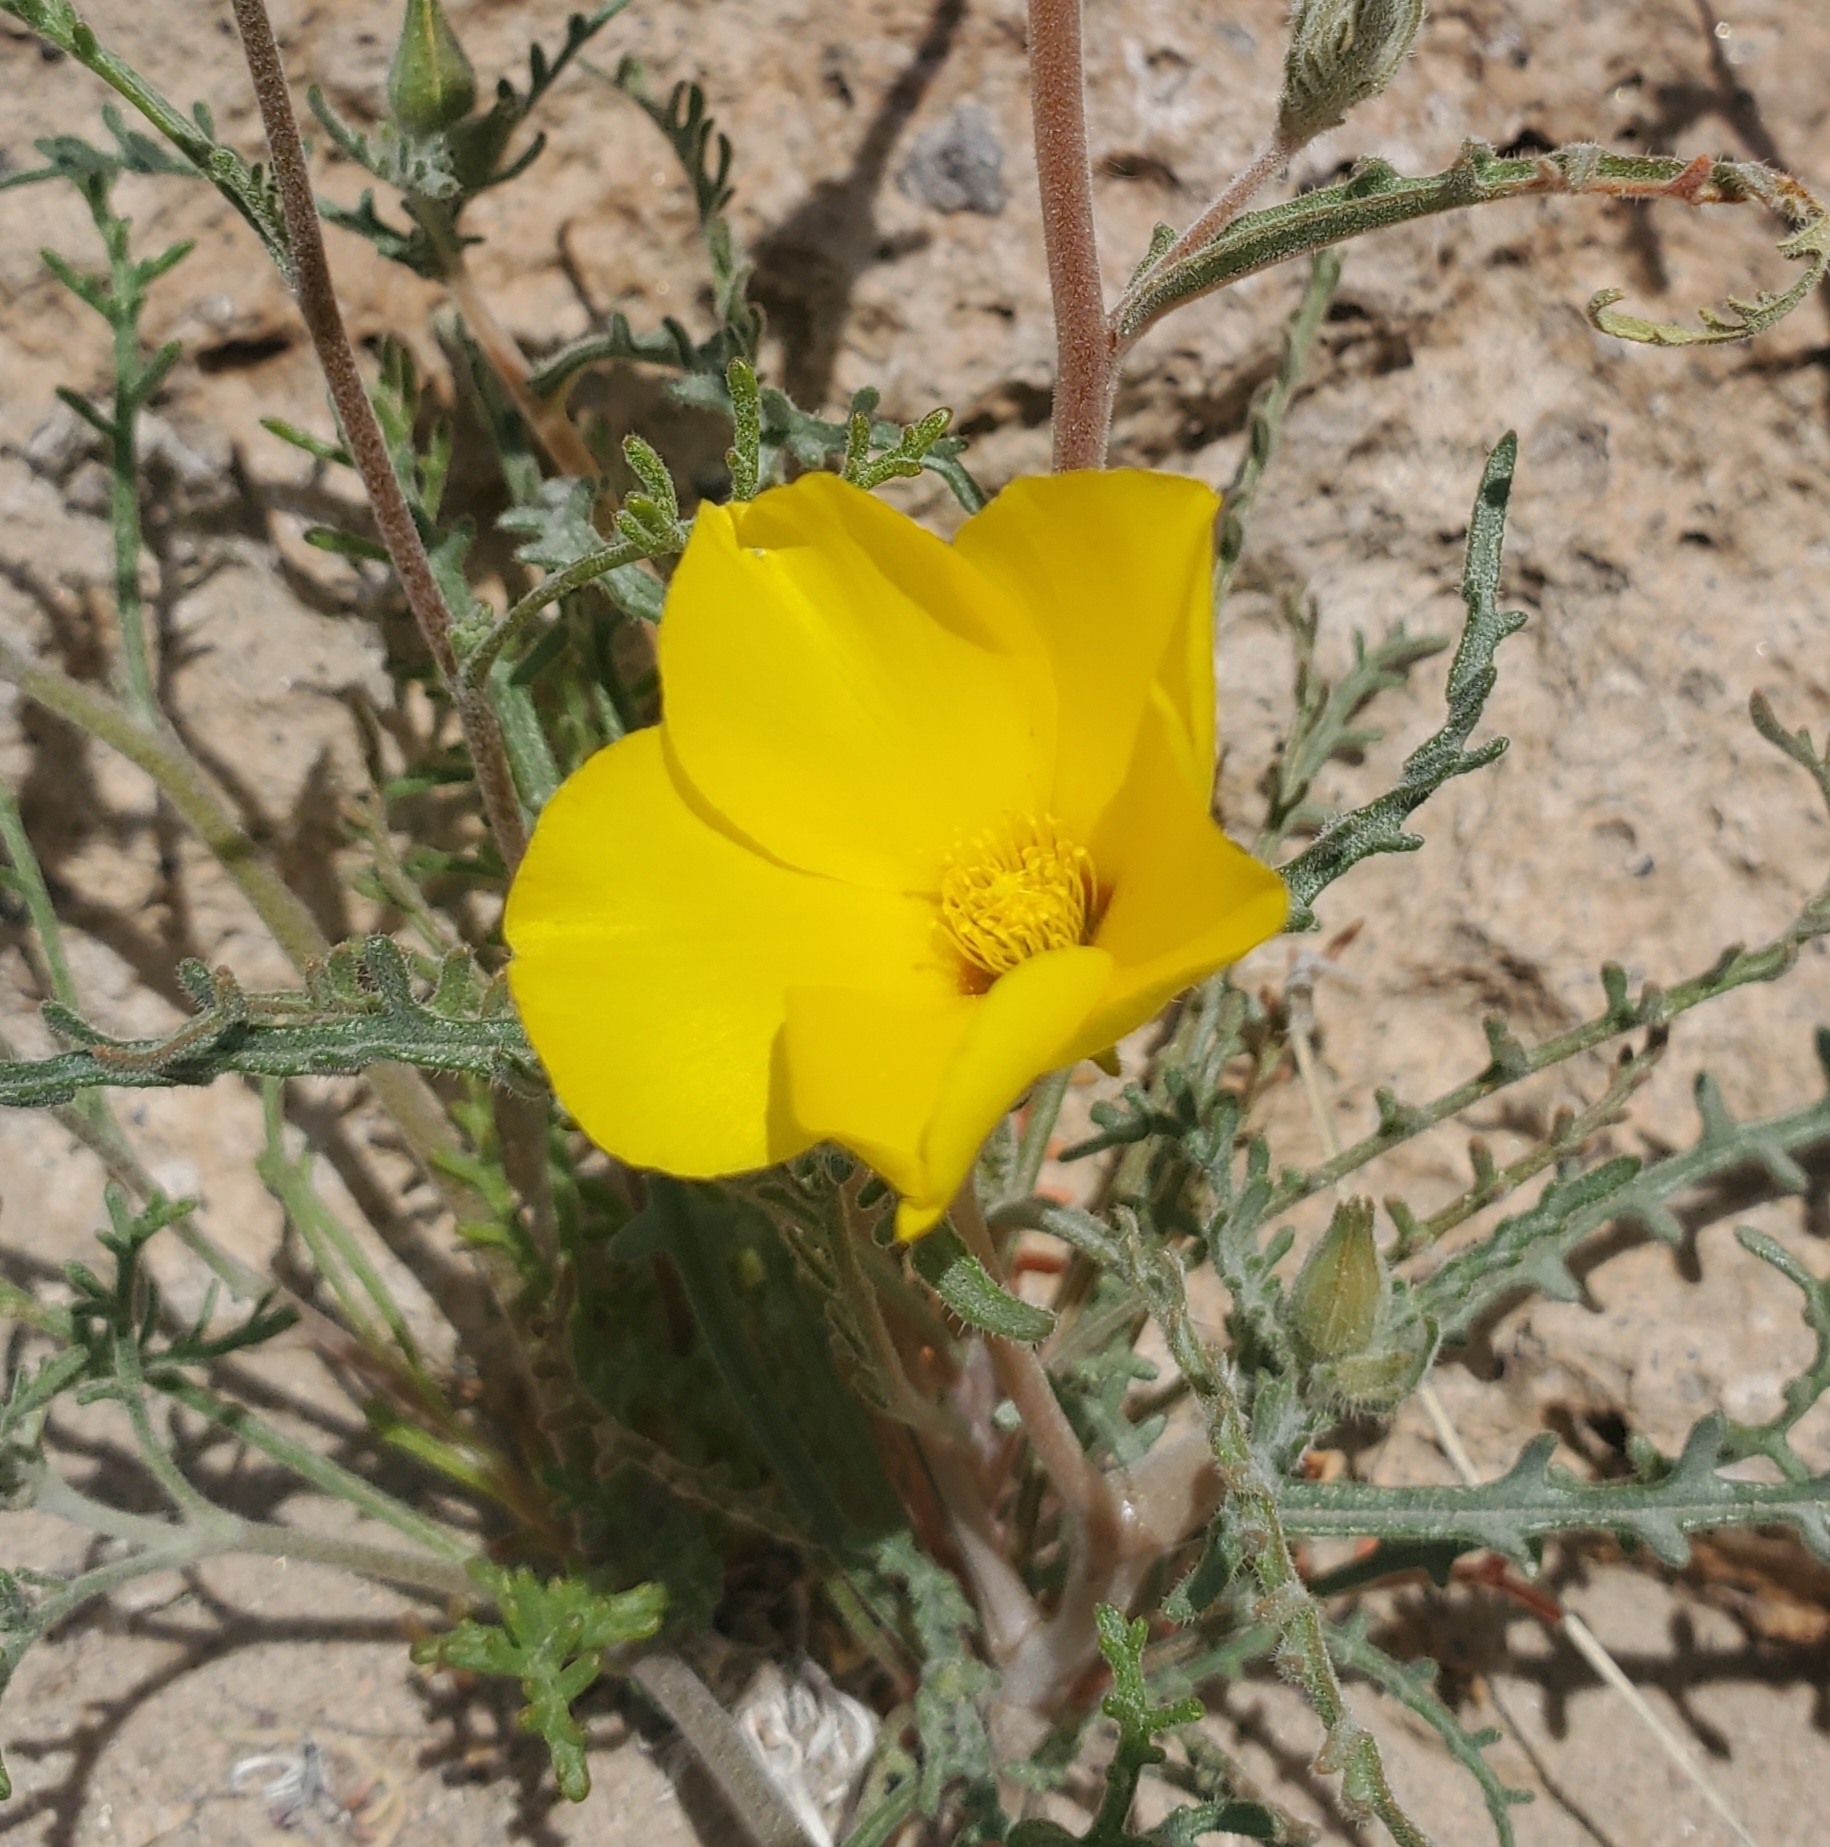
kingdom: Plantae
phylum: Tracheophyta
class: Magnoliopsida
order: Cornales
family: Loasaceae
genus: Mentzelia
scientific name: Mentzelia nitens
